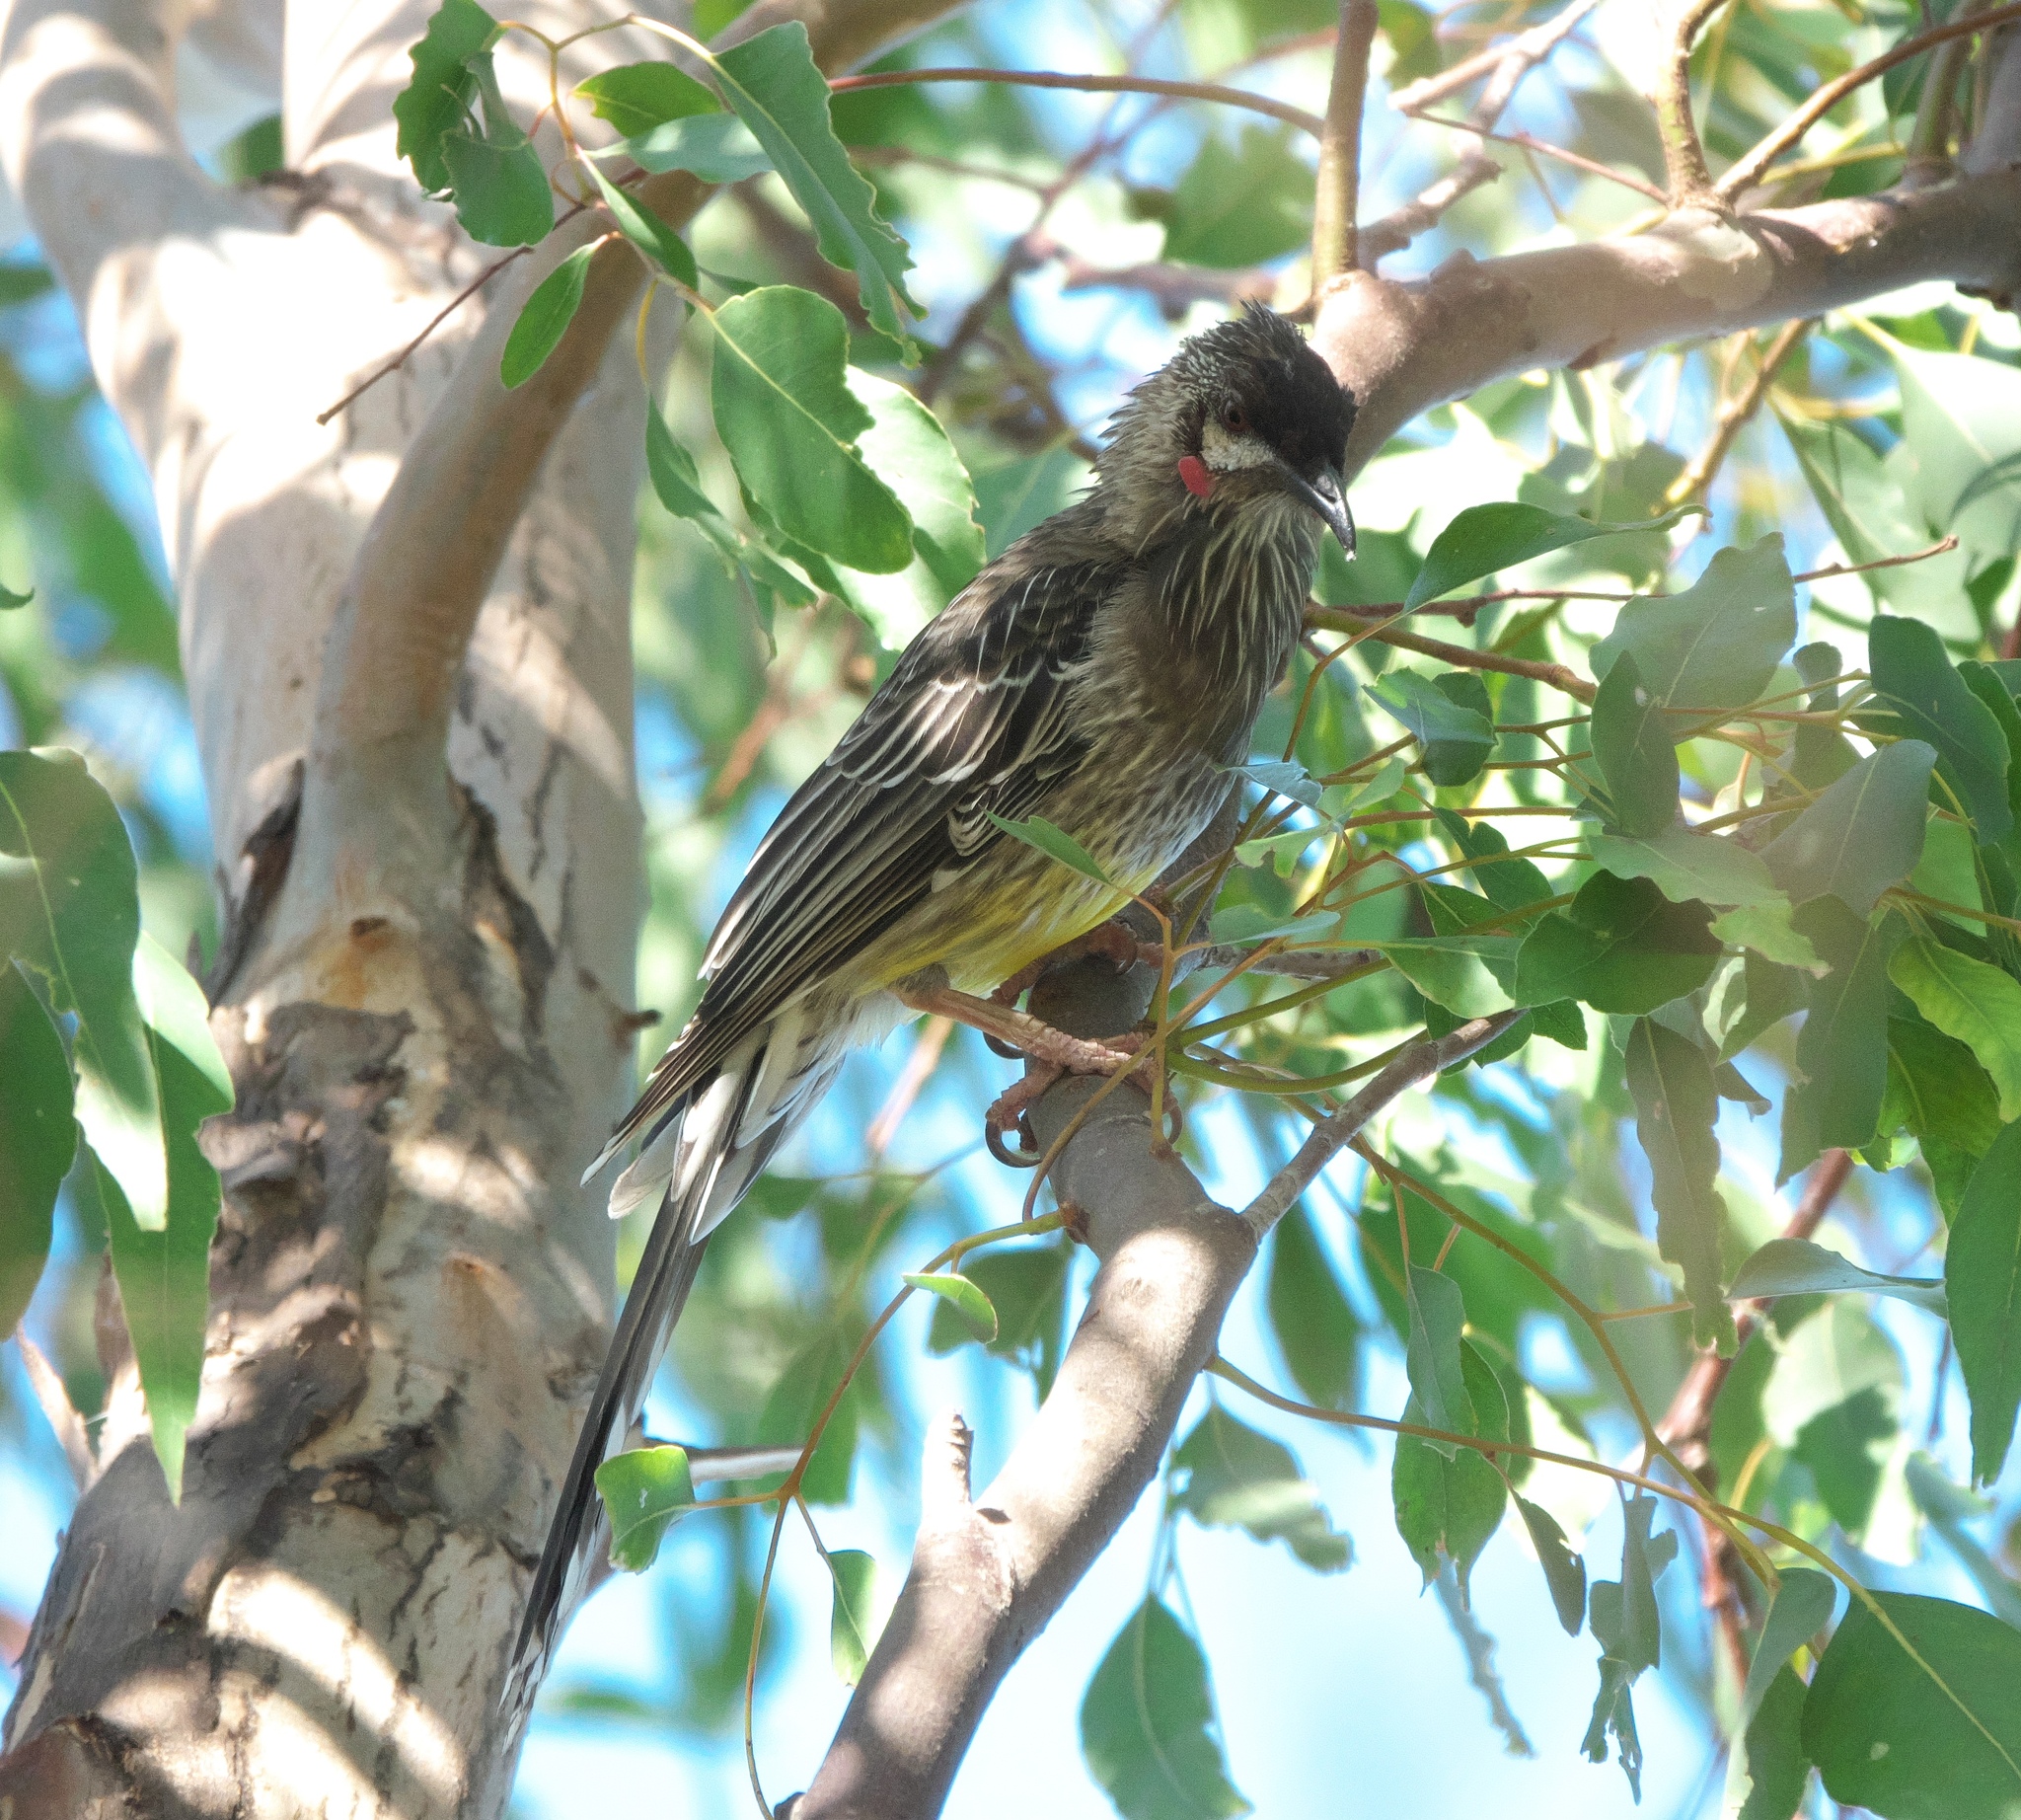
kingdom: Animalia
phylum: Chordata
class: Aves
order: Passeriformes
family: Meliphagidae
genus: Anthochaera
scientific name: Anthochaera carunculata
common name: Red wattlebird
